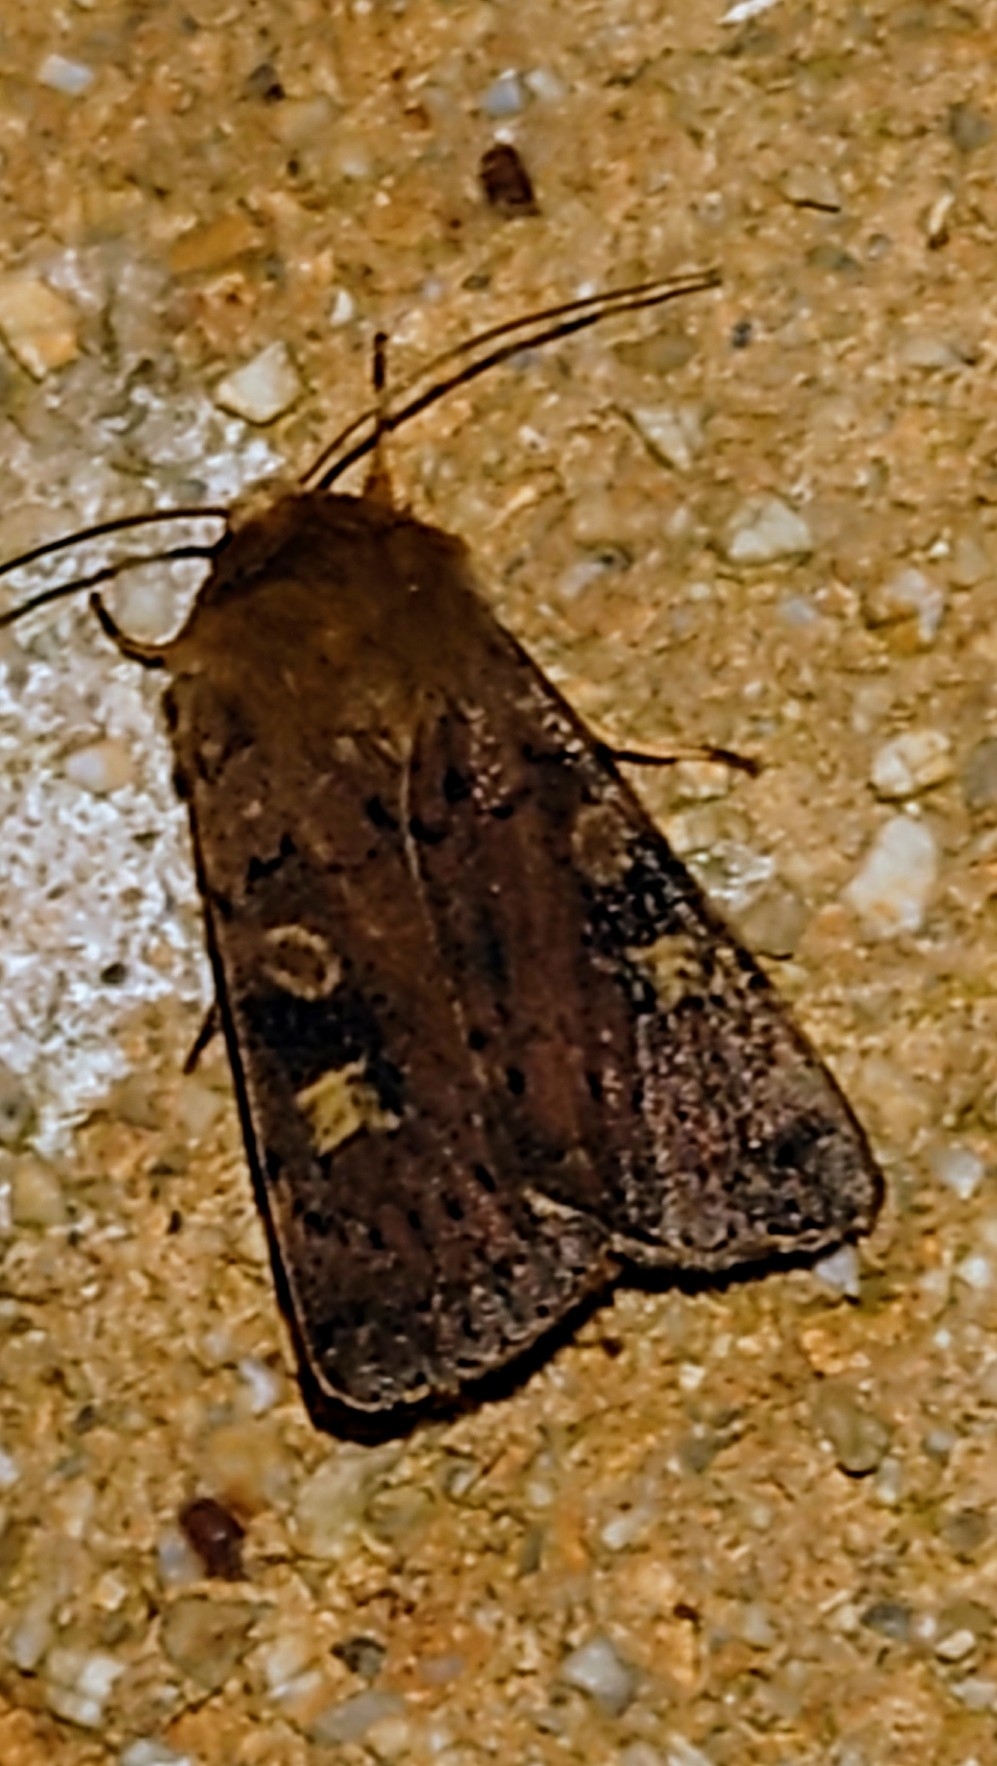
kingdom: Animalia
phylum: Arthropoda
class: Insecta
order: Lepidoptera
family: Noctuidae
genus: Xestia
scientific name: Xestia xanthographa
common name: Square-spot rustic
